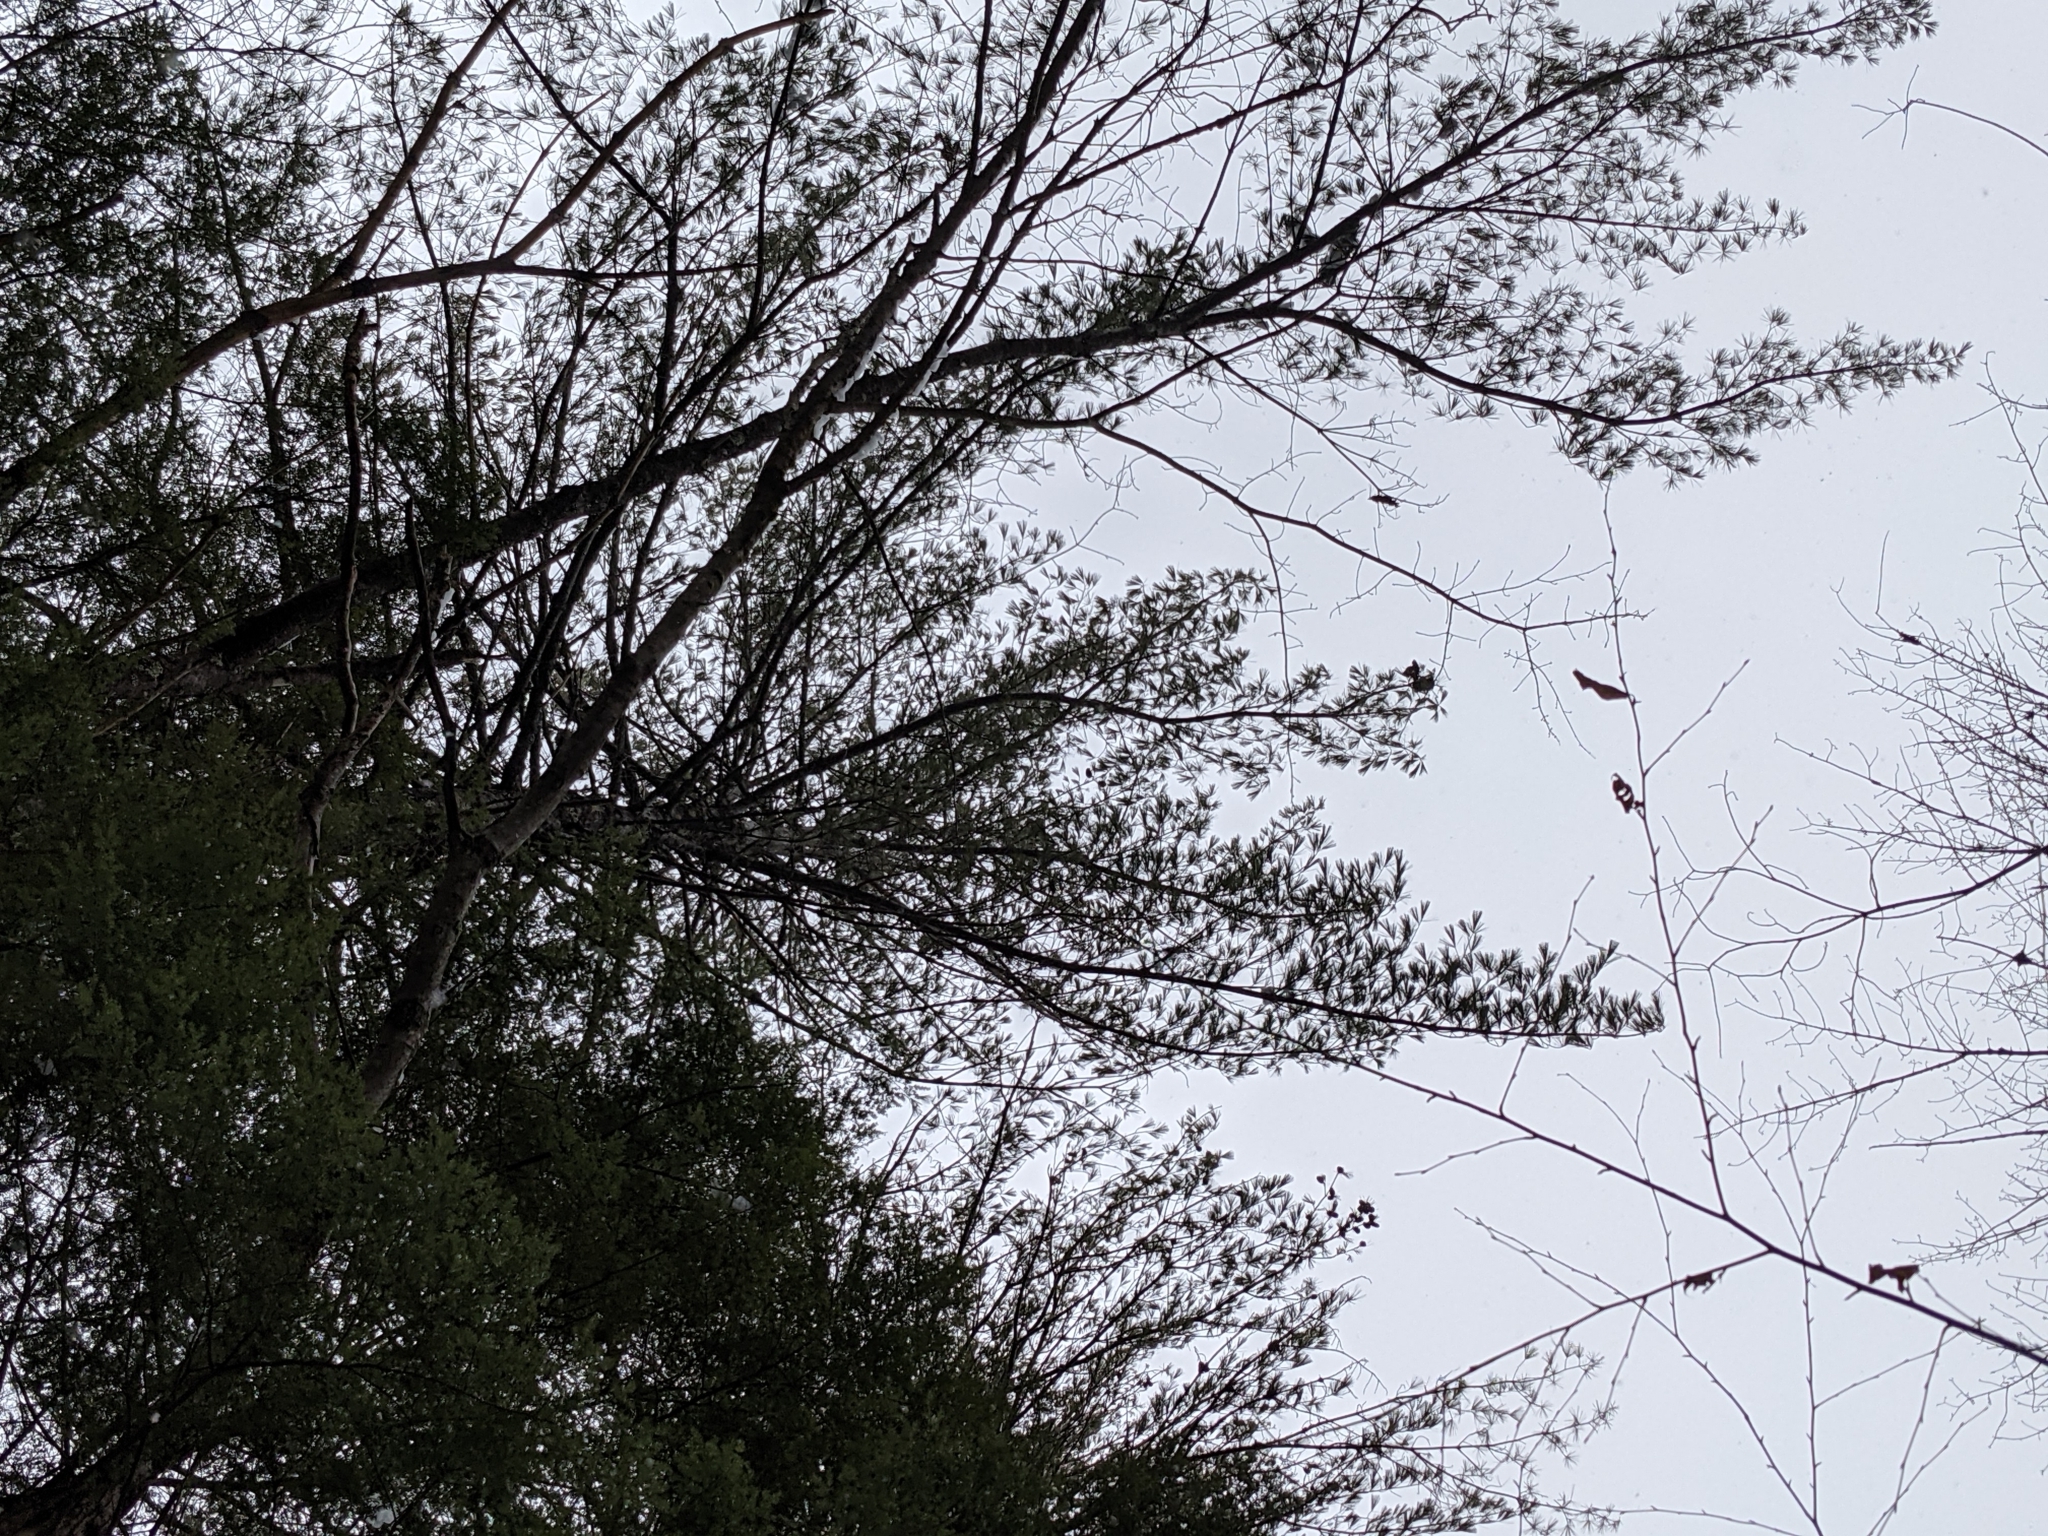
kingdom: Plantae
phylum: Tracheophyta
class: Pinopsida
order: Pinales
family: Pinaceae
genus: Pinus
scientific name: Pinus strobus
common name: Weymouth pine
